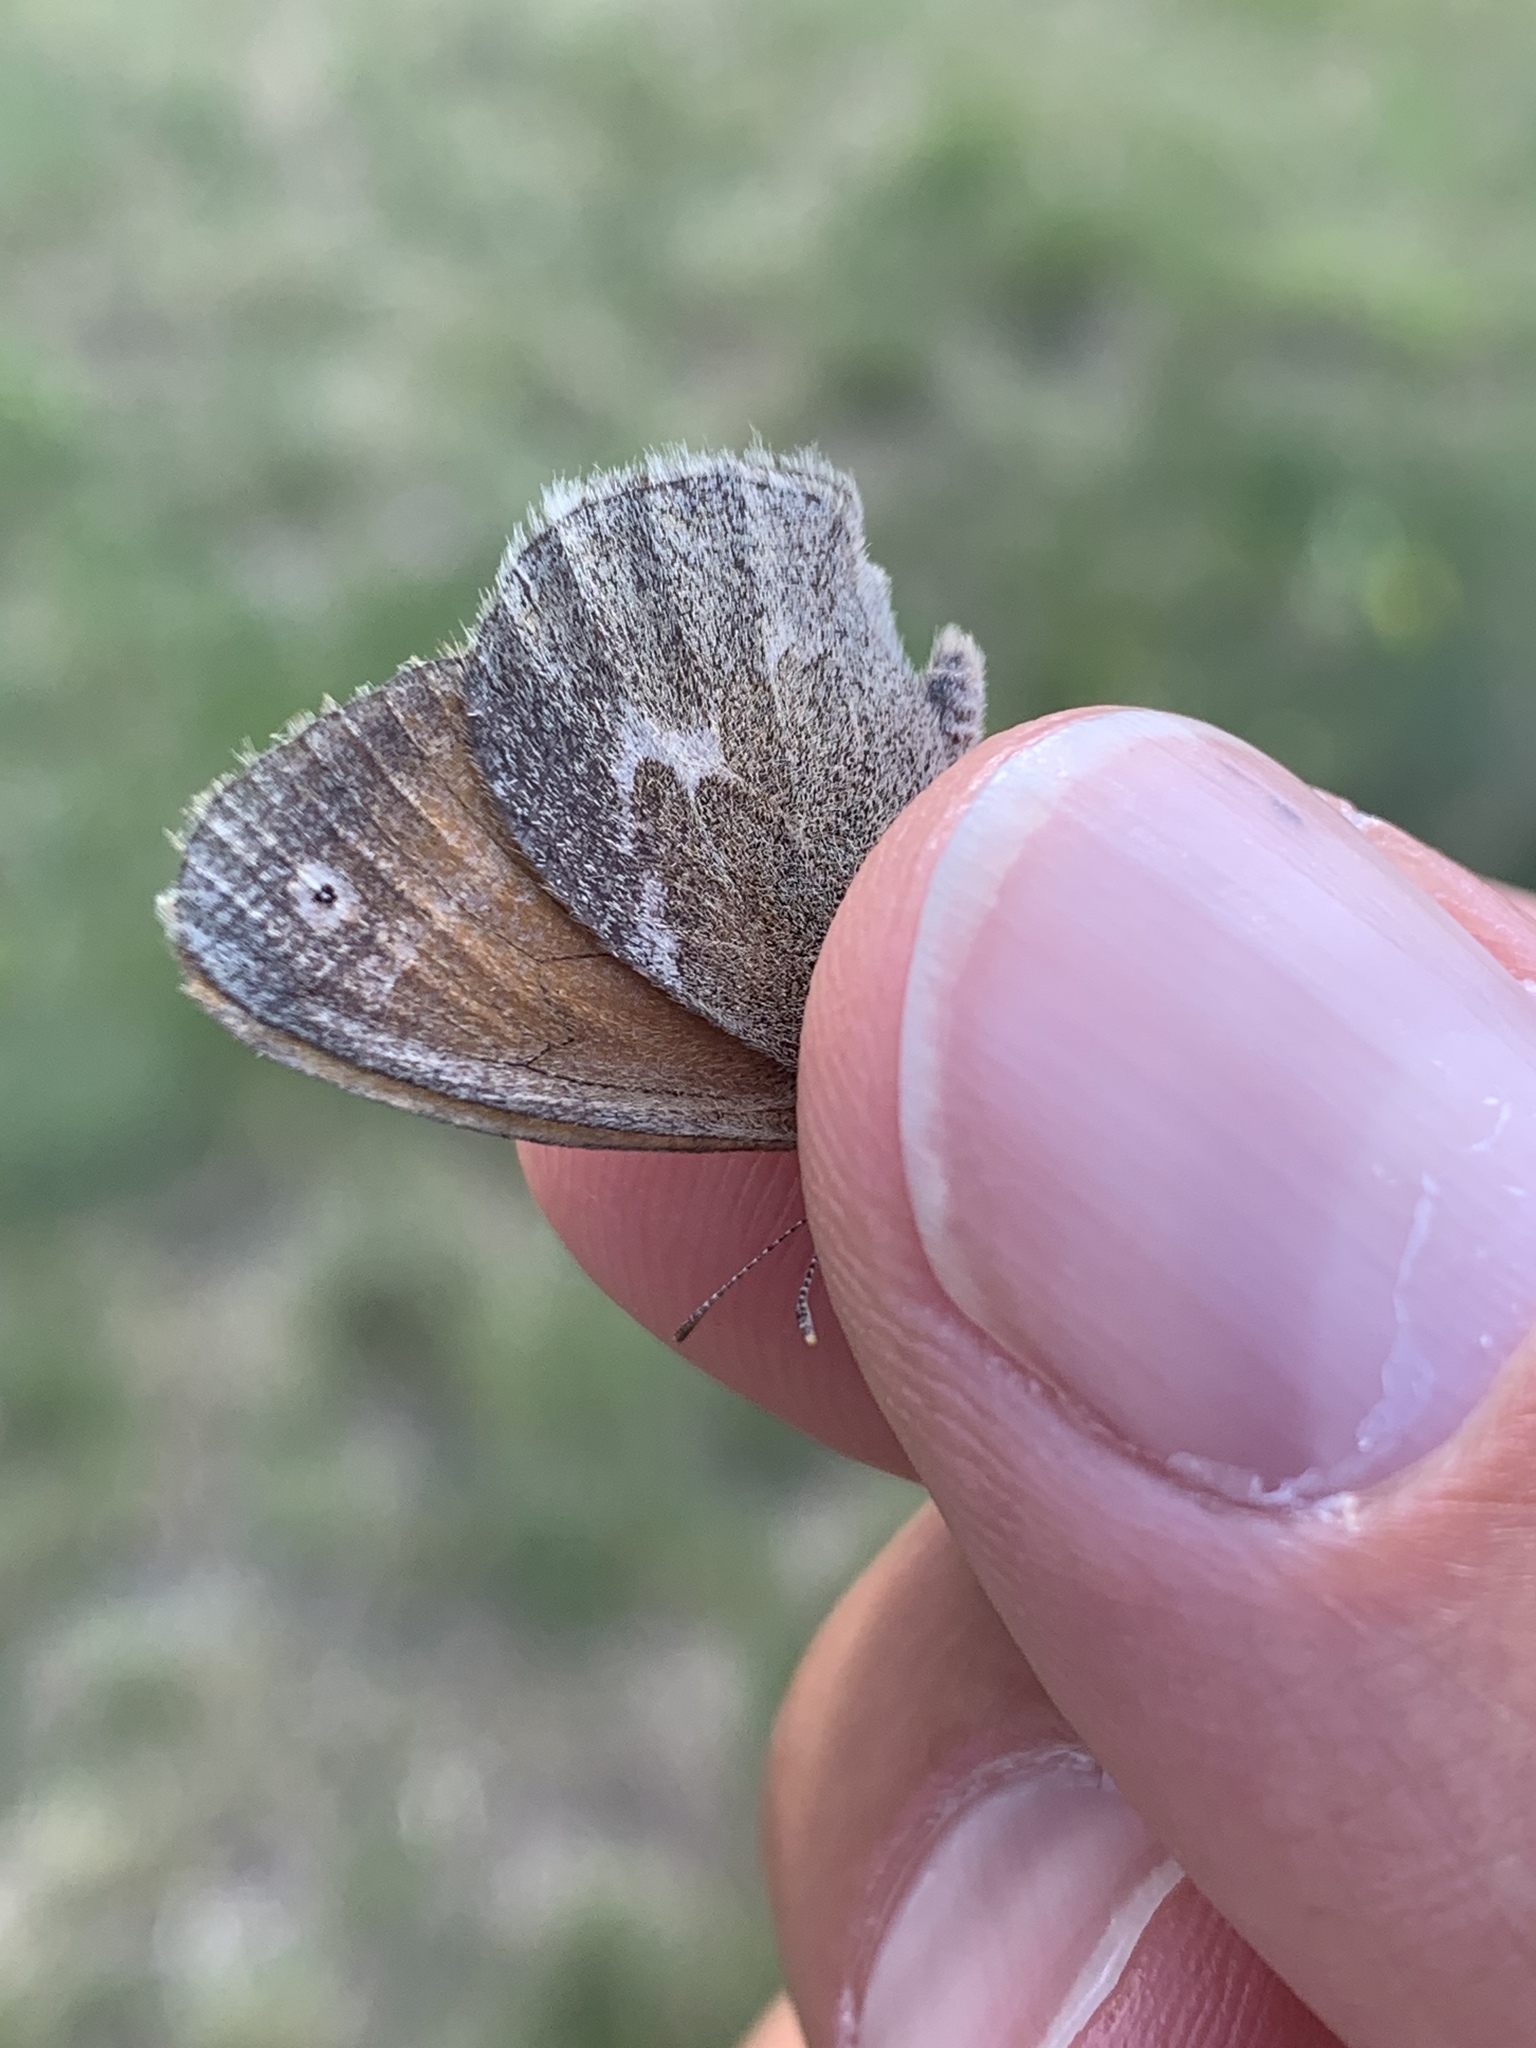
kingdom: Animalia
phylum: Arthropoda
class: Insecta
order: Lepidoptera
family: Nymphalidae
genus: Coenonympha
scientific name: Coenonympha california
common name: Common ringlet
